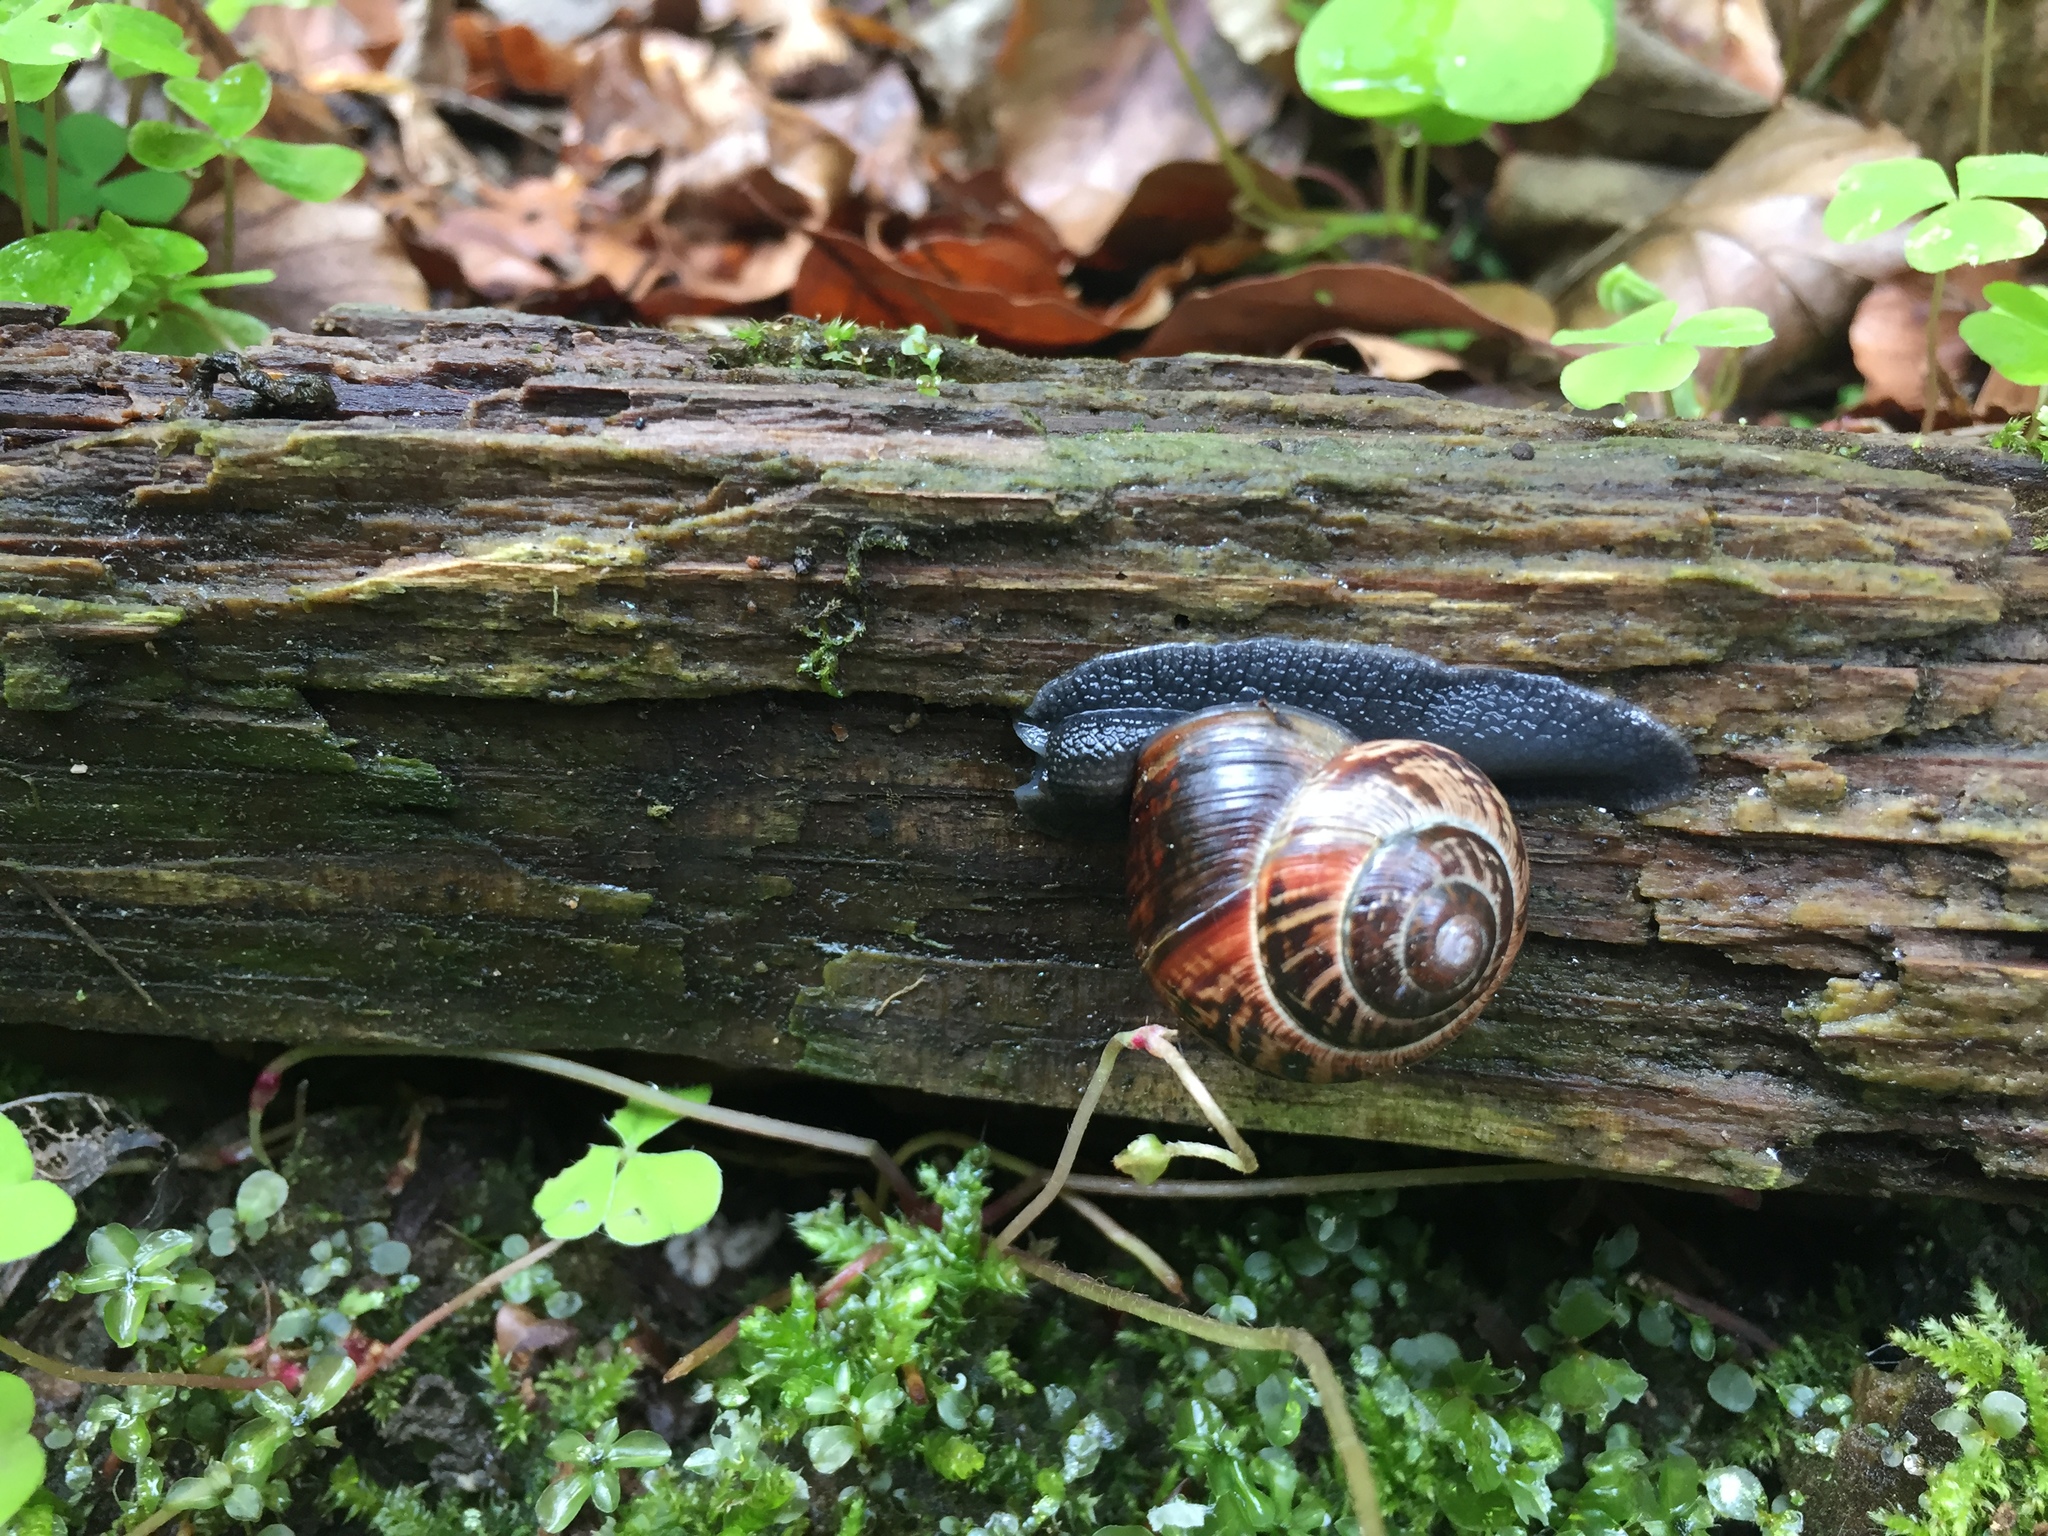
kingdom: Animalia
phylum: Mollusca
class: Gastropoda
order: Stylommatophora
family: Helicidae
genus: Arianta
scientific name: Arianta arbustorum
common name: Copse snail
